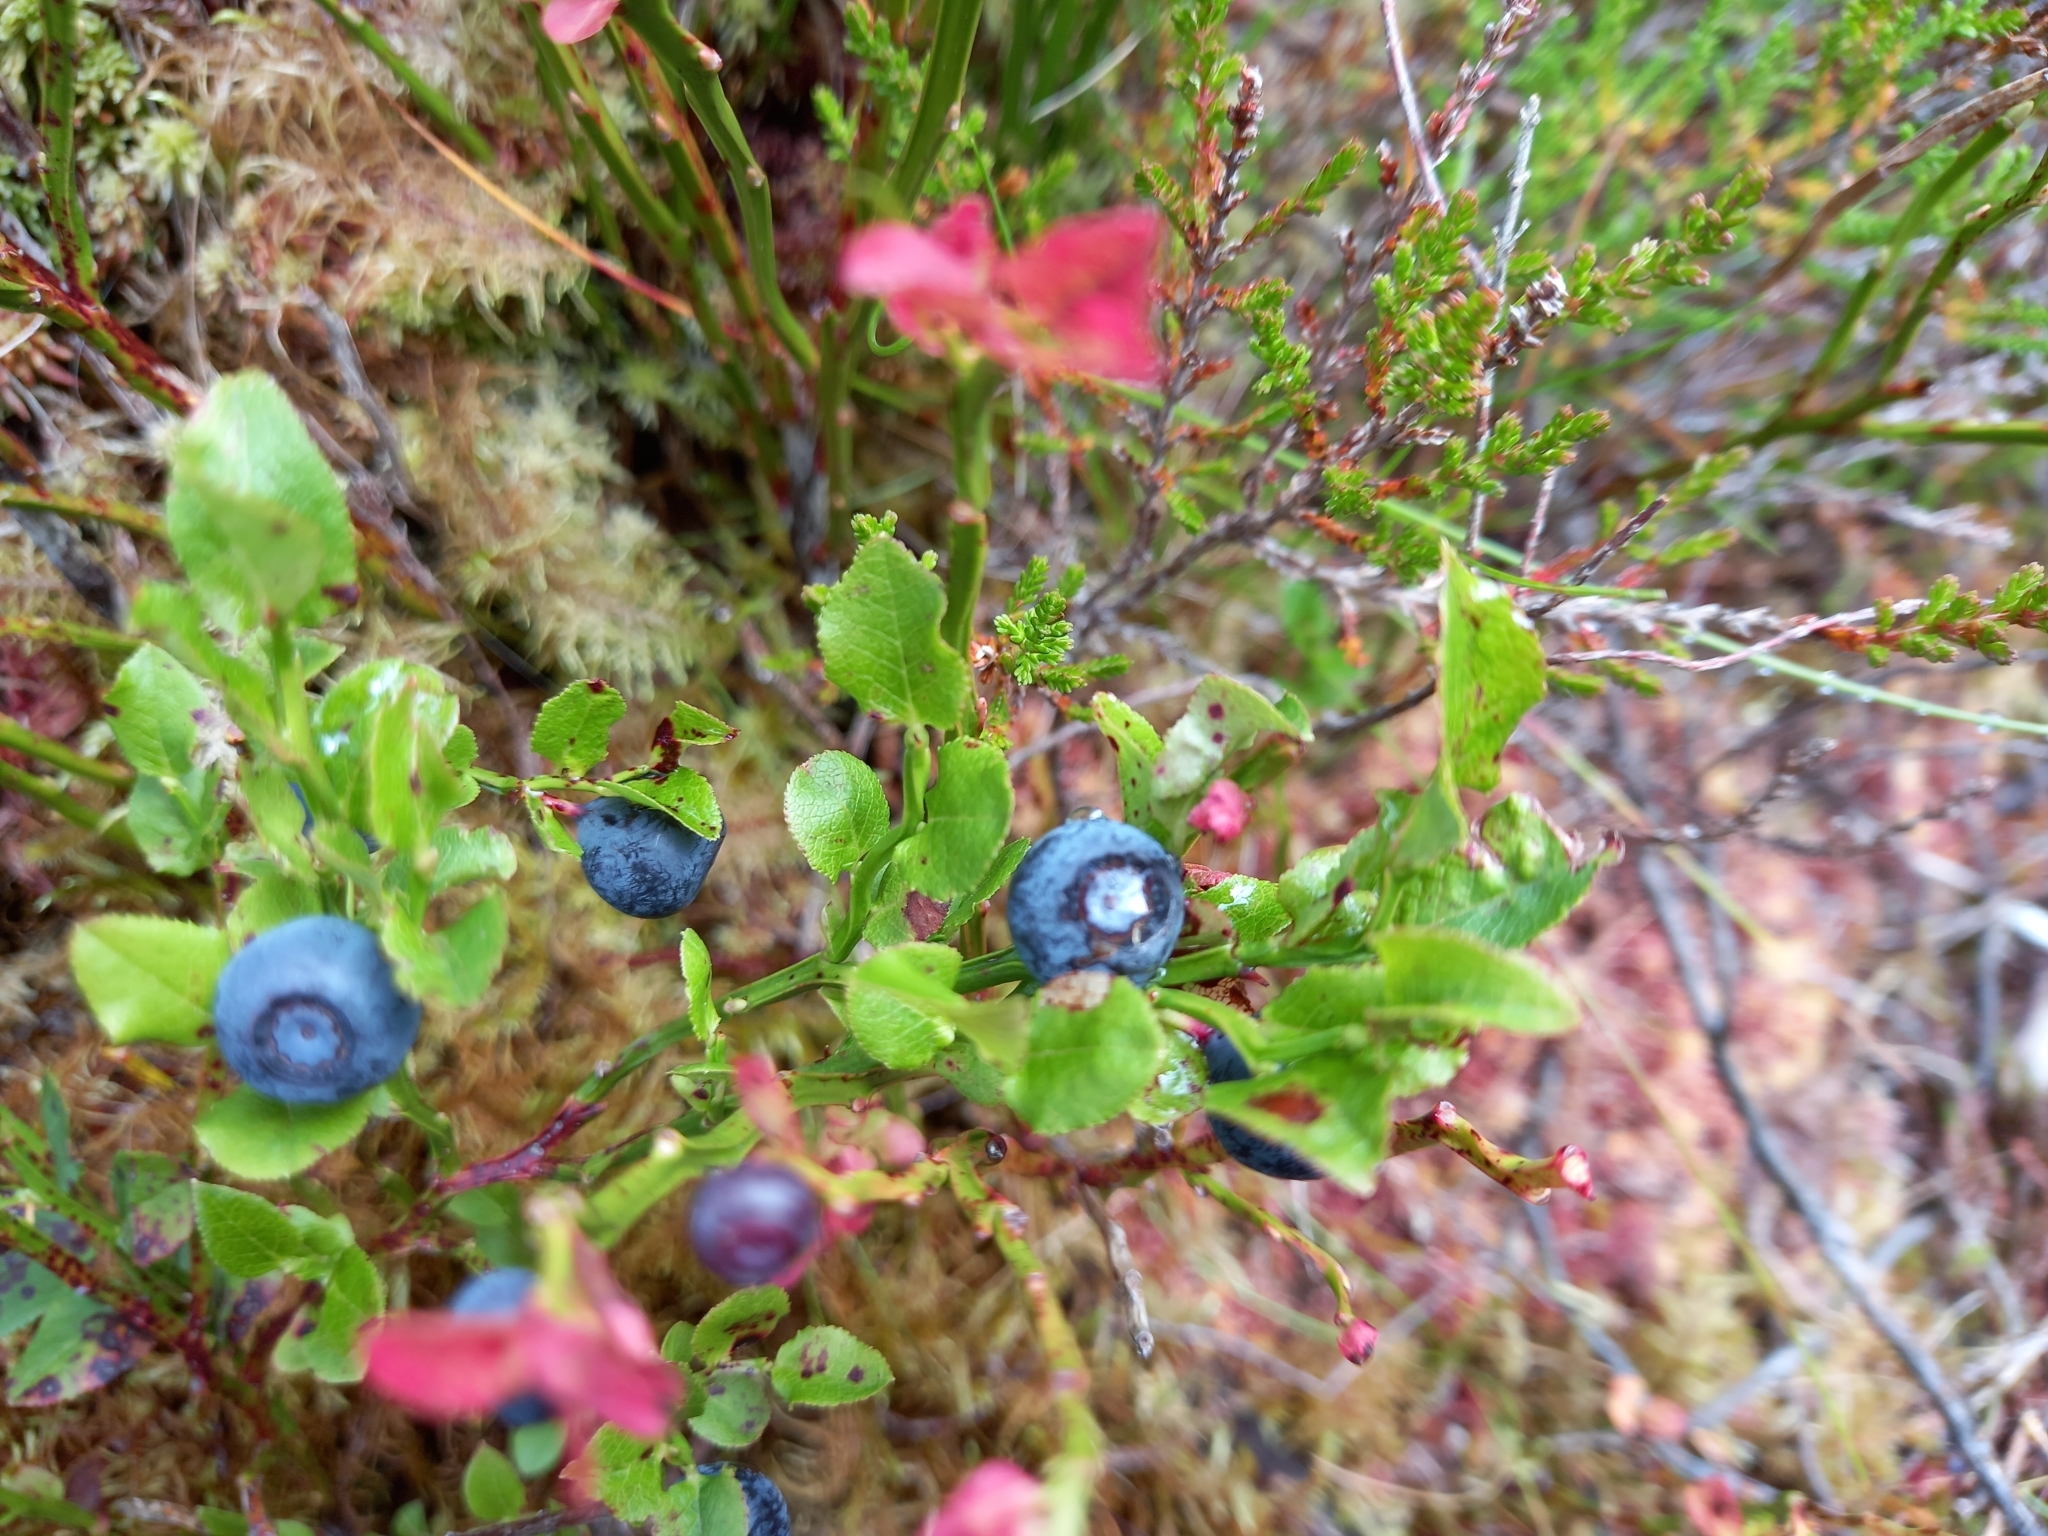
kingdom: Plantae
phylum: Tracheophyta
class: Magnoliopsida
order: Ericales
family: Ericaceae
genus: Vaccinium
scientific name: Vaccinium myrtillus
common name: Bilberry
